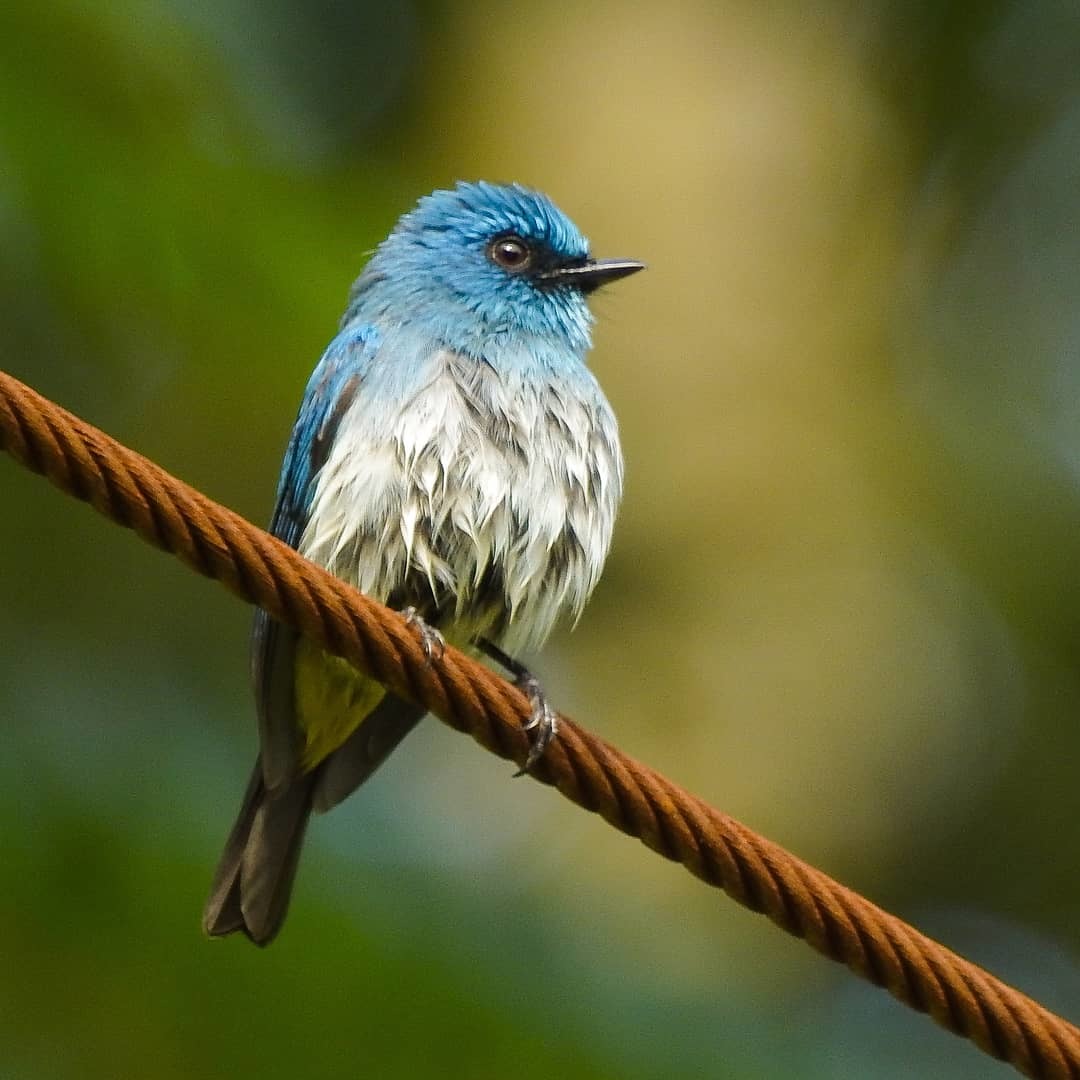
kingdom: Animalia
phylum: Chordata
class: Aves
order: Passeriformes
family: Muscicapidae
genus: Eumyias
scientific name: Eumyias indigo
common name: Indigo flycatcher
